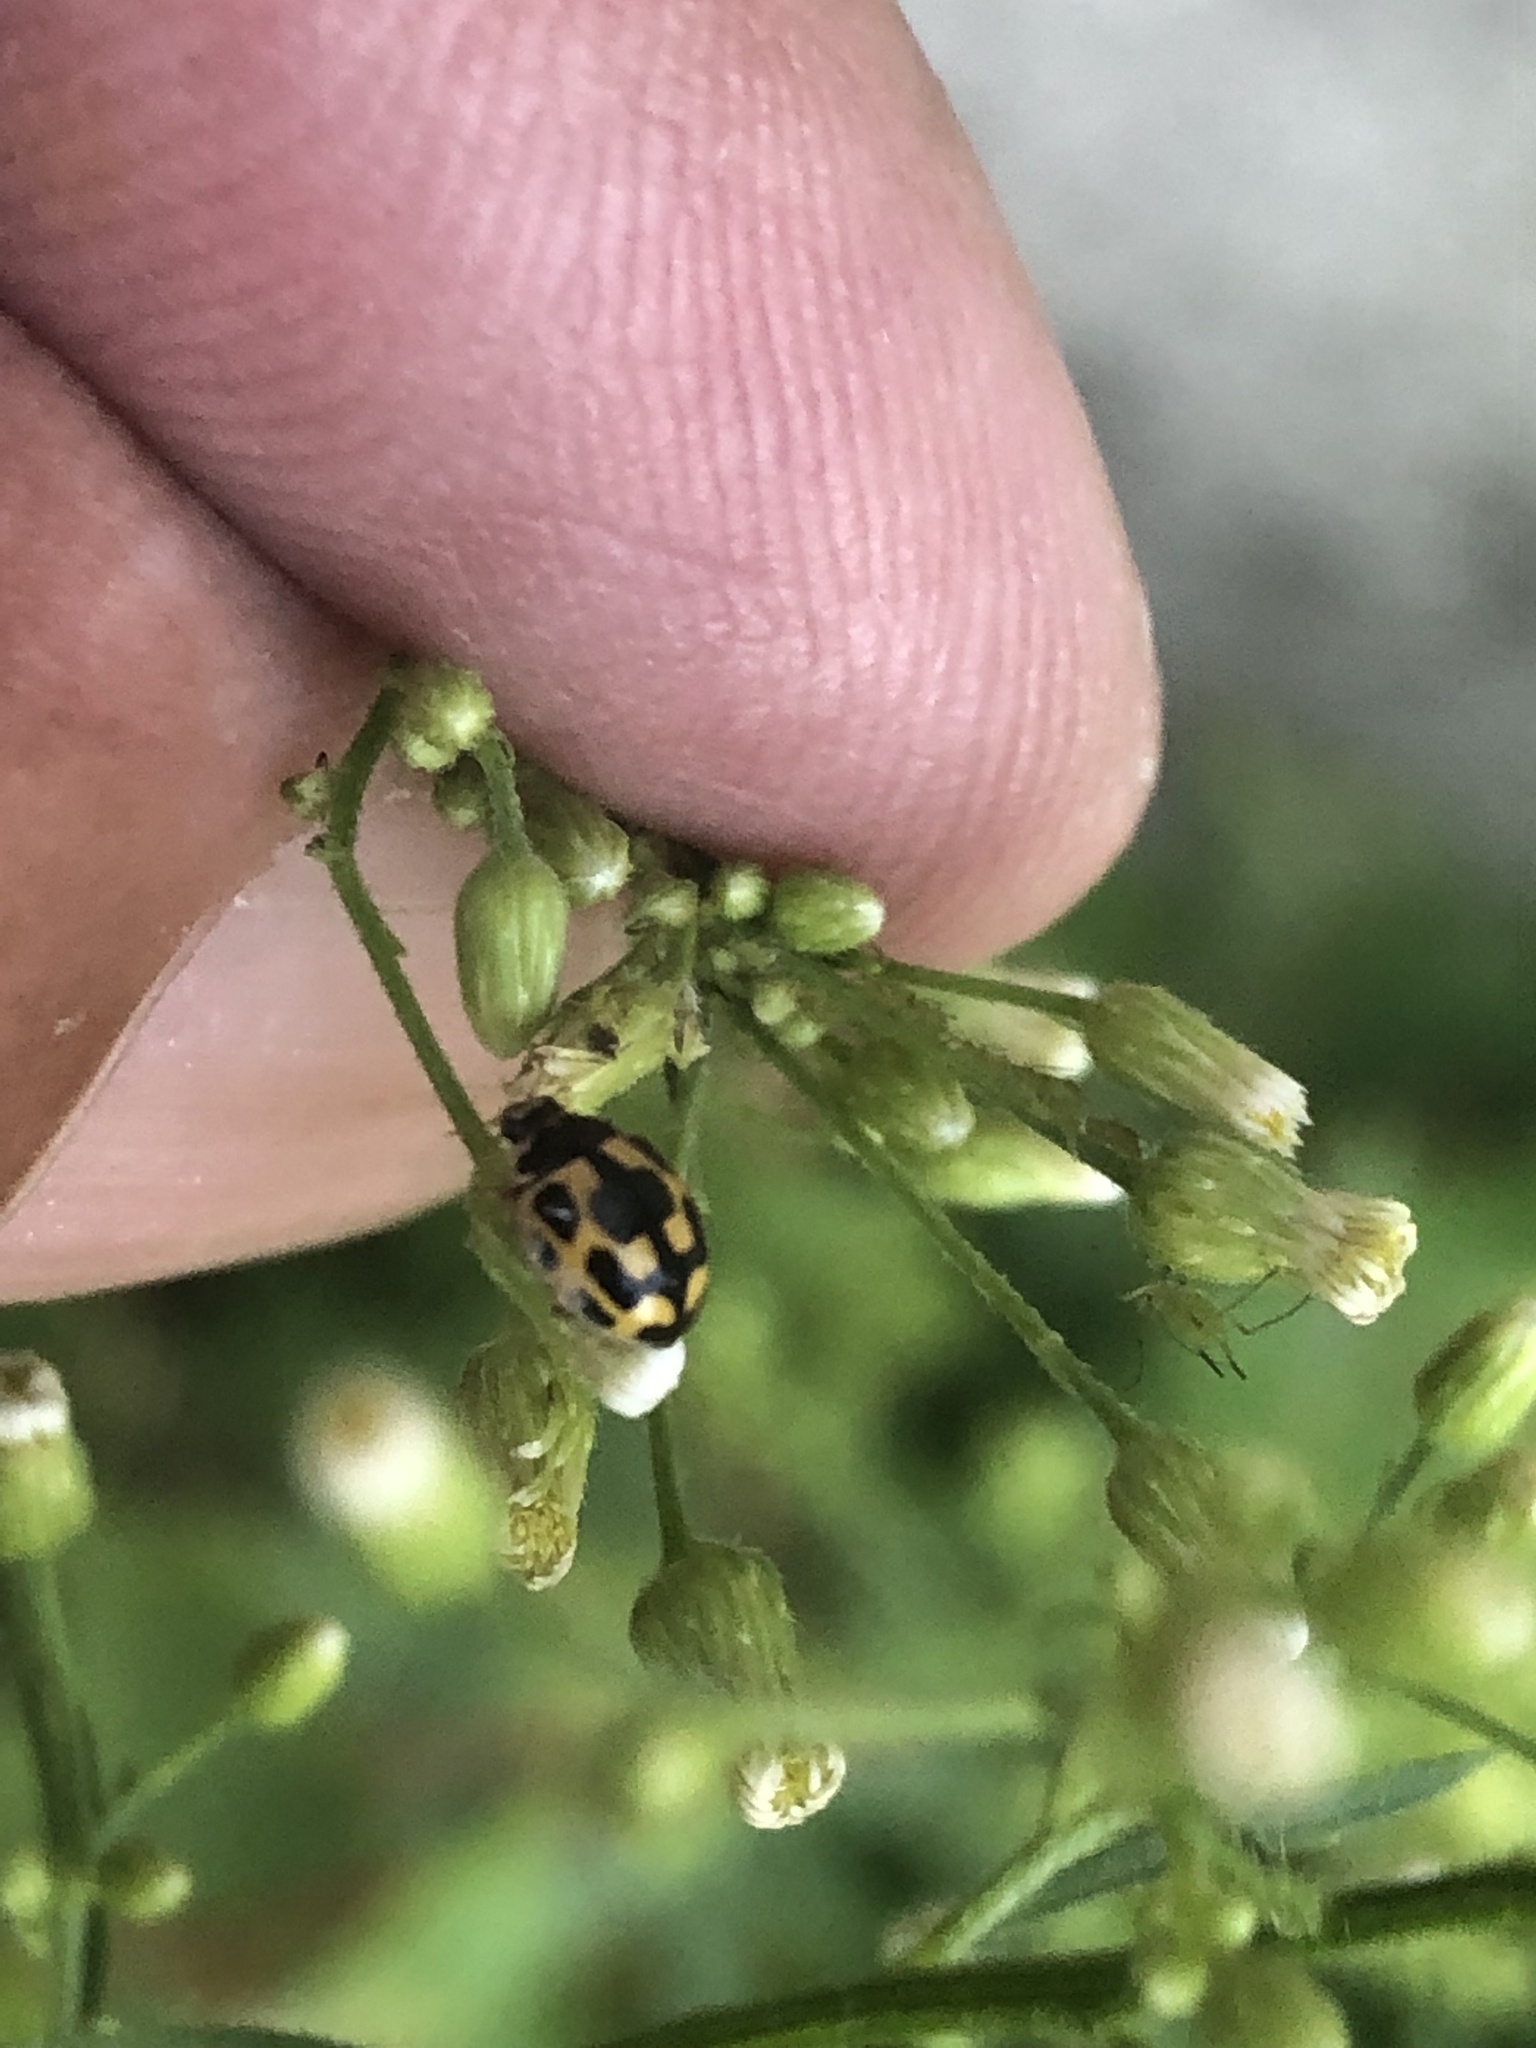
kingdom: Animalia
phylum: Arthropoda
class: Insecta
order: Coleoptera
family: Coccinellidae
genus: Propylaea
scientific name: Propylaea quatuordecimpunctata
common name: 14-spotted ladybird beetle
